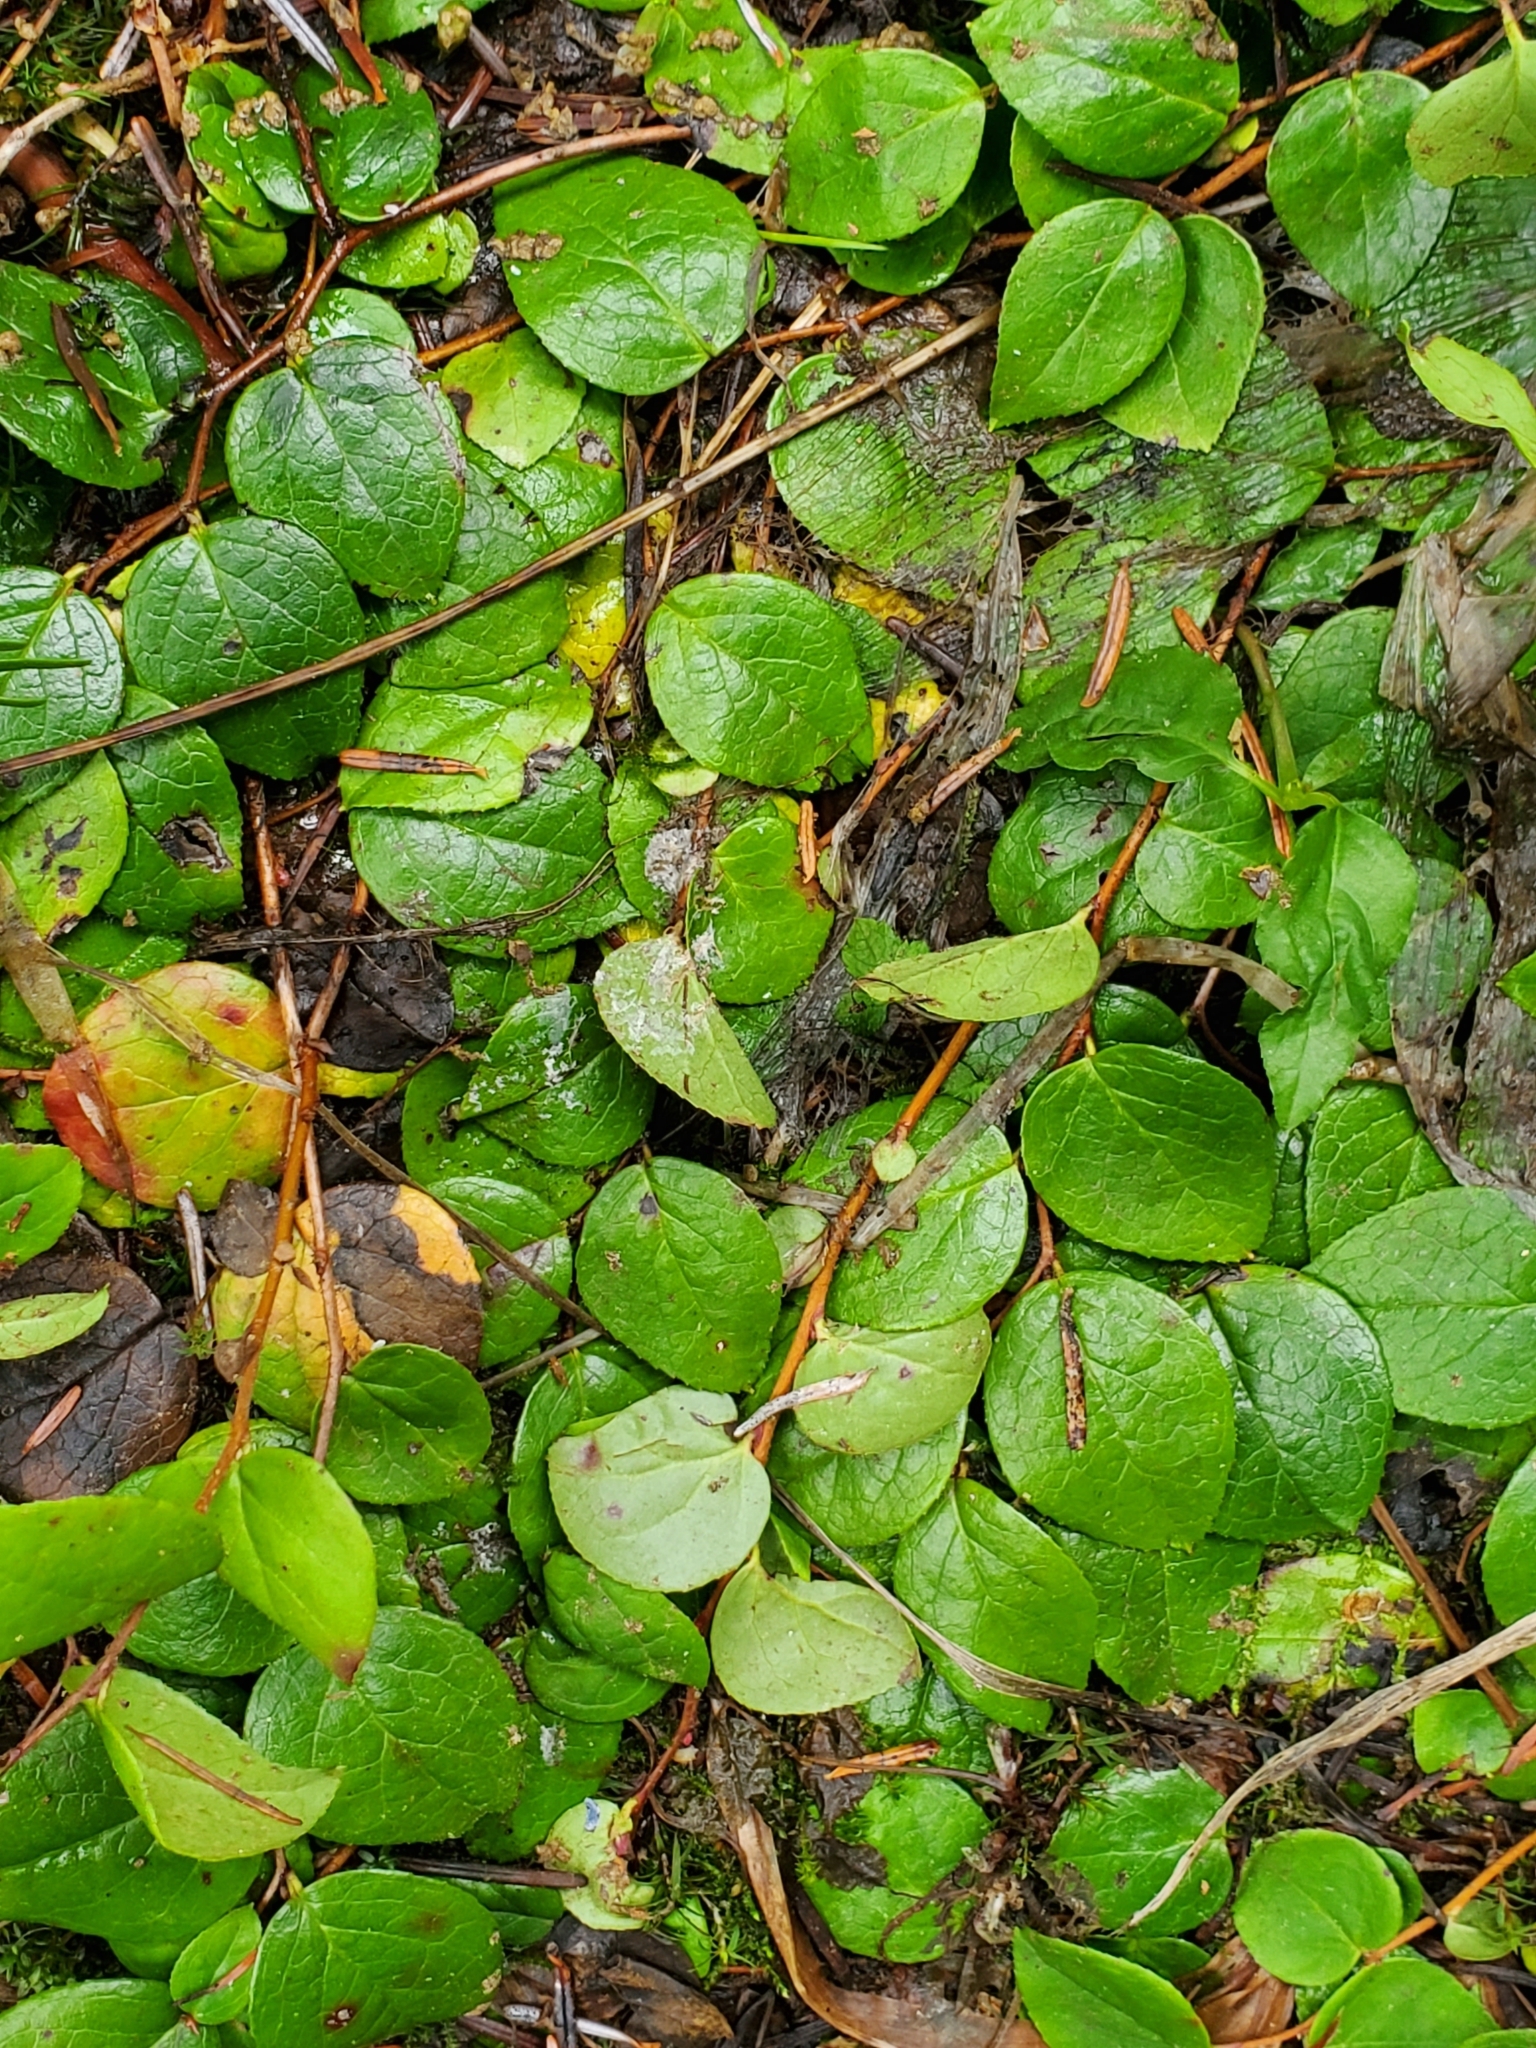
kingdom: Plantae
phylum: Tracheophyta
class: Magnoliopsida
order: Ericales
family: Ericaceae
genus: Gaultheria
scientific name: Gaultheria ovatifolia
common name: Oregon wintergreen
